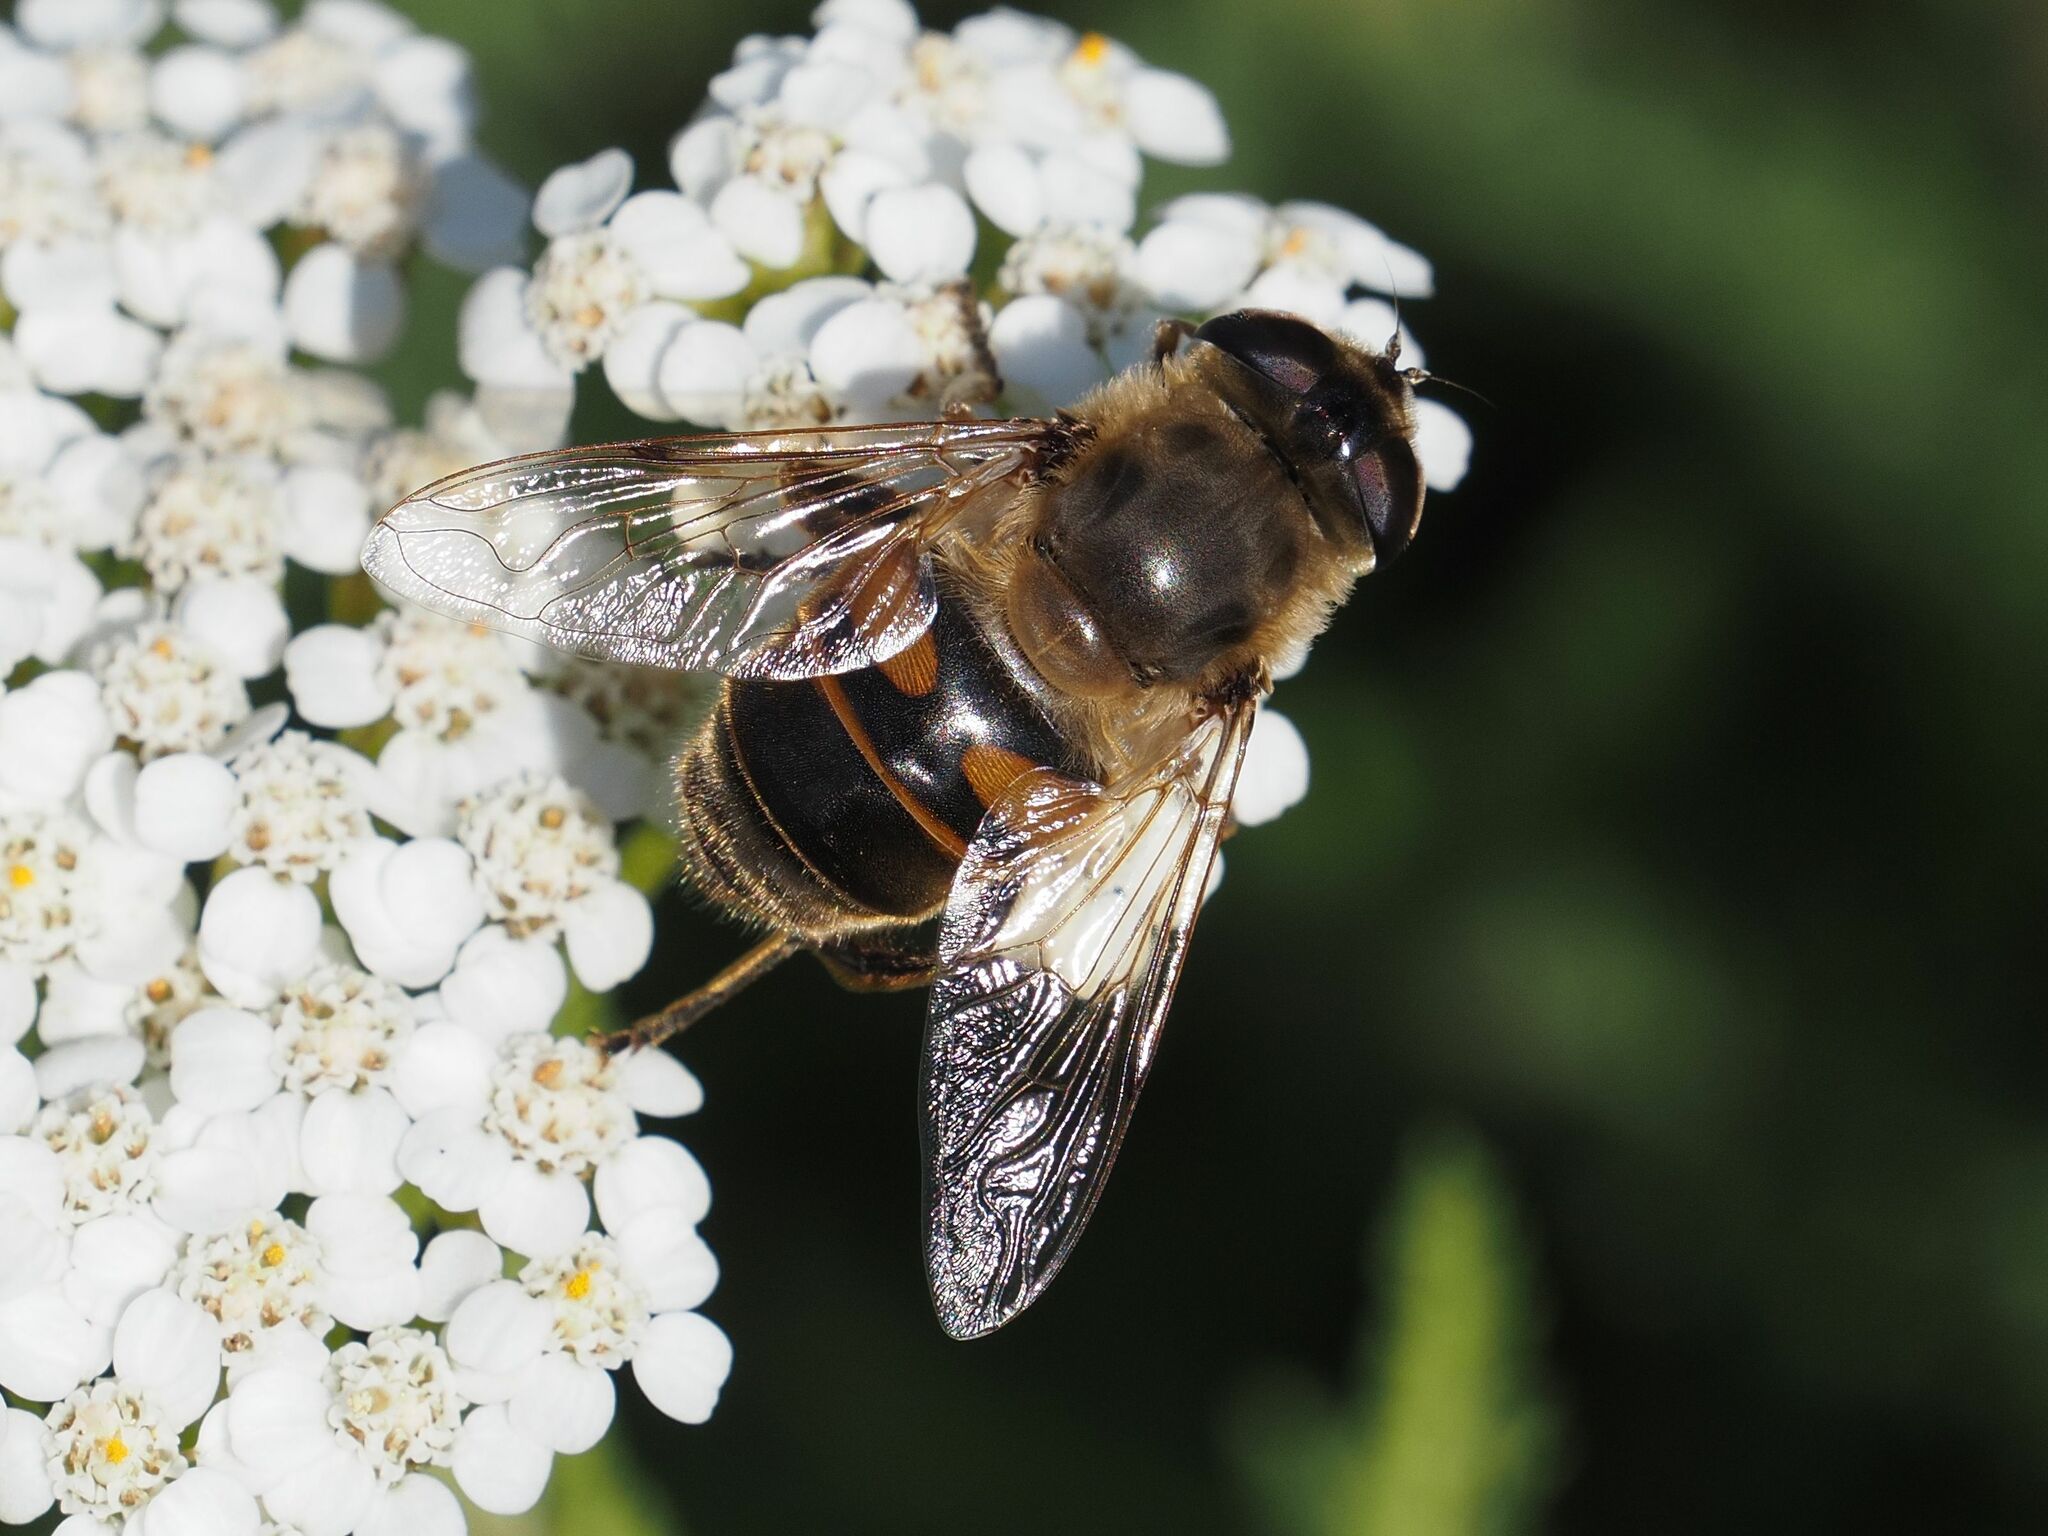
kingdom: Animalia
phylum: Arthropoda
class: Insecta
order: Diptera
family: Syrphidae
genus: Eristalis
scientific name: Eristalis tenax
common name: Drone fly
